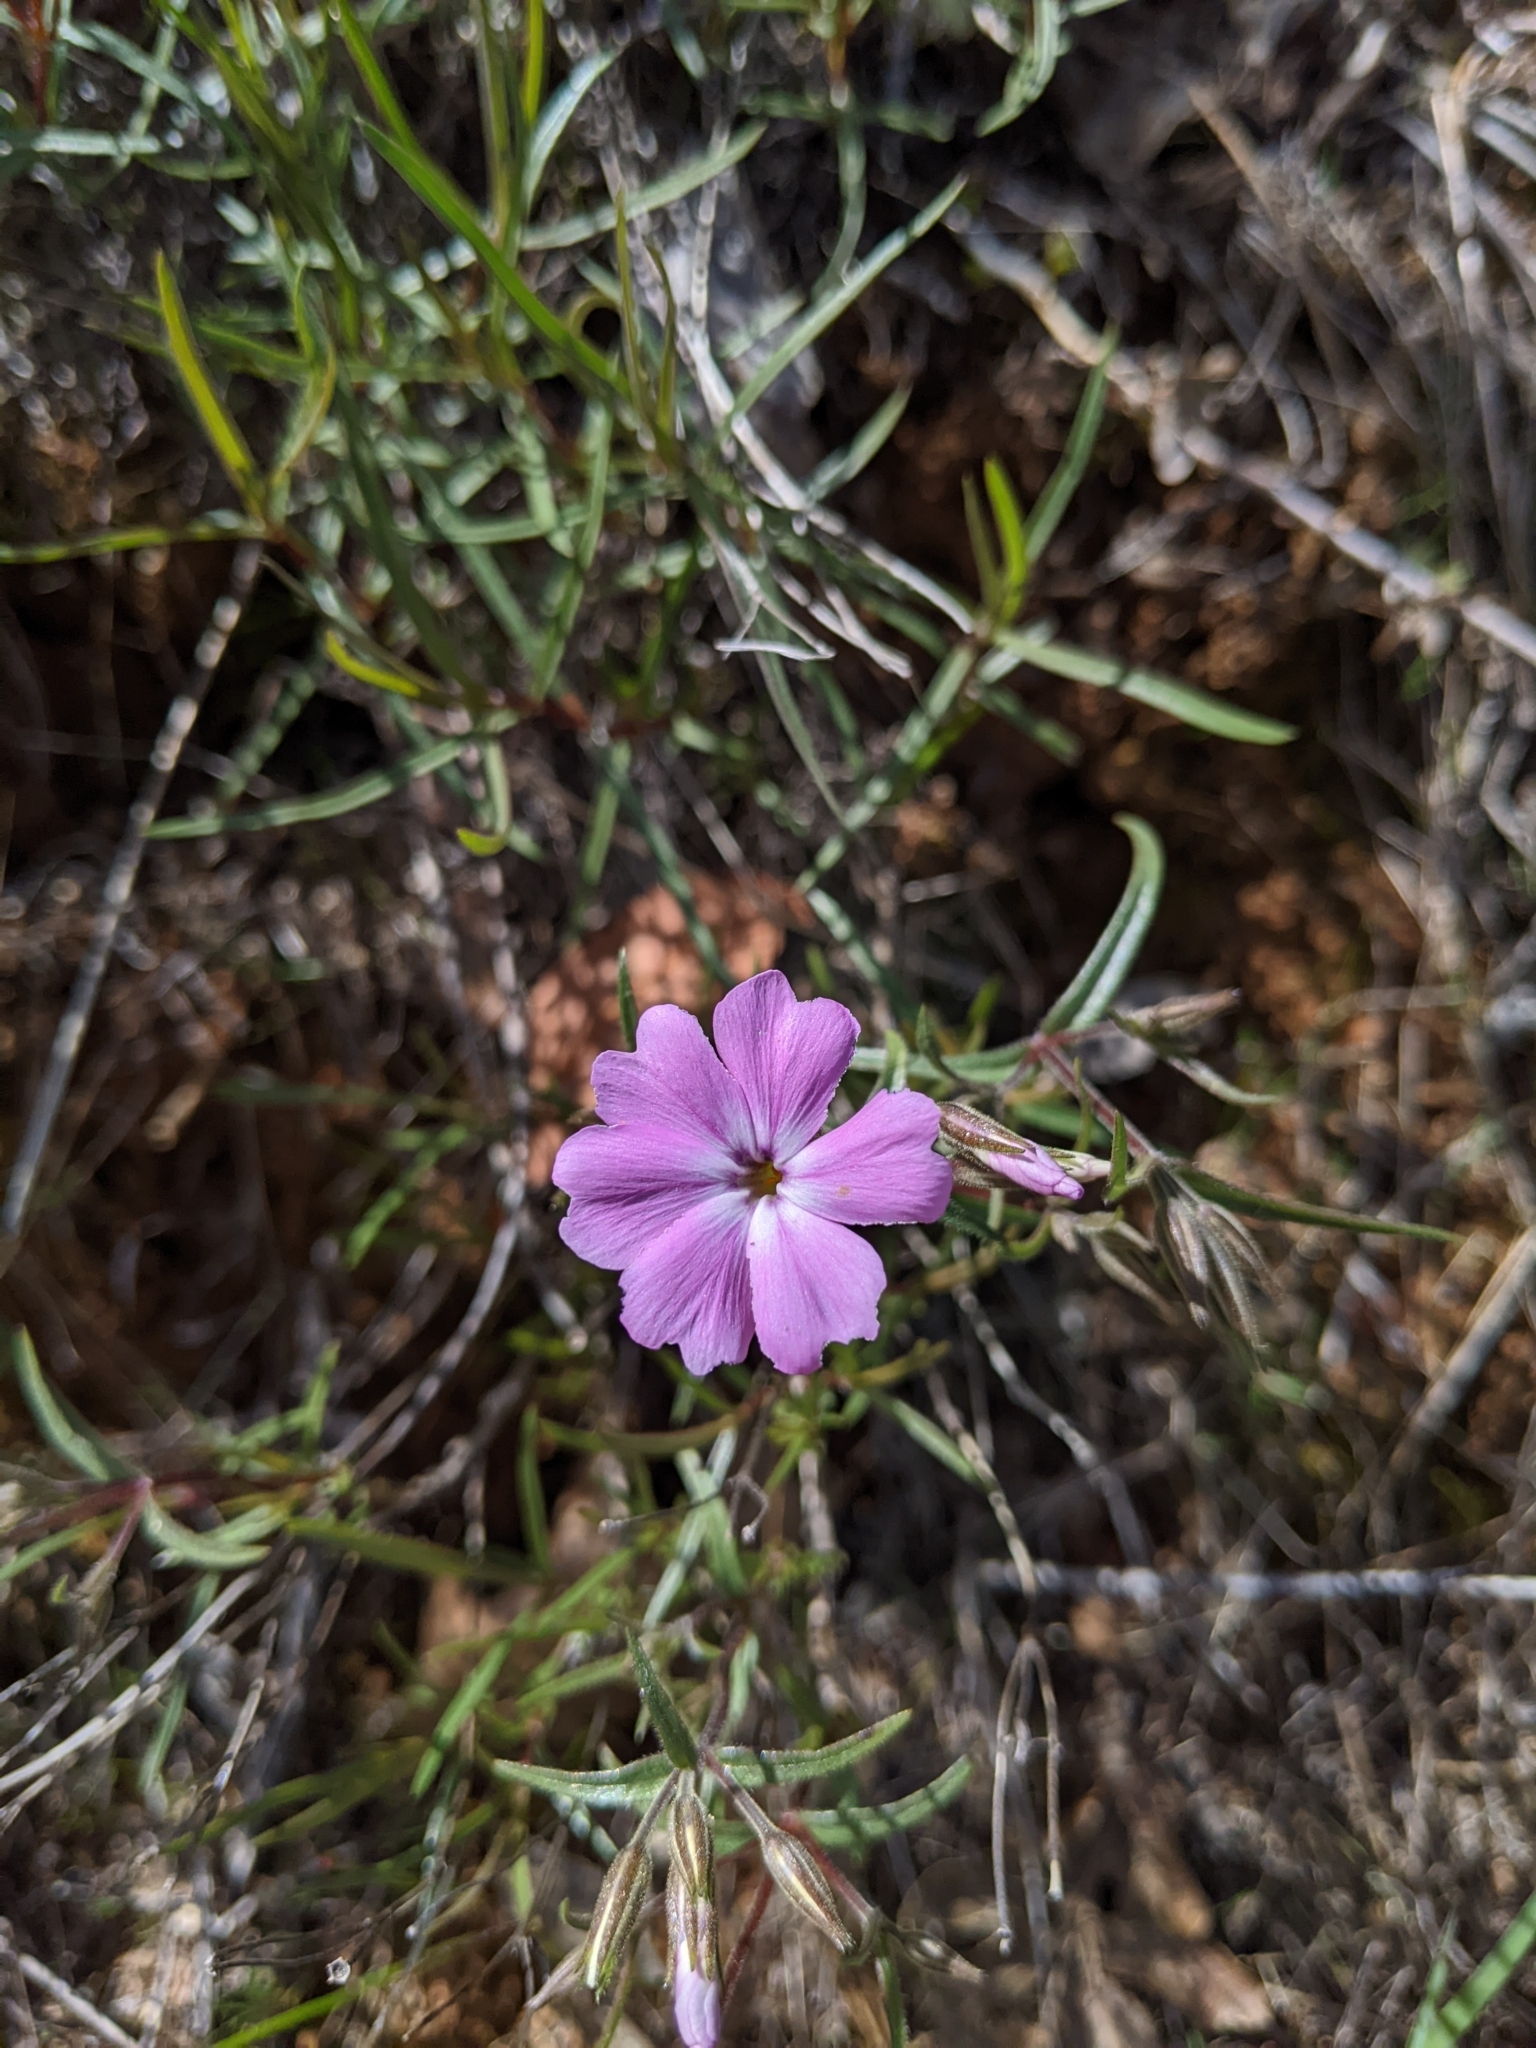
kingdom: Plantae
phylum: Tracheophyta
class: Magnoliopsida
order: Ericales
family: Polemoniaceae
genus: Phlox
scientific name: Phlox speciosa
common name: Bush phlox
